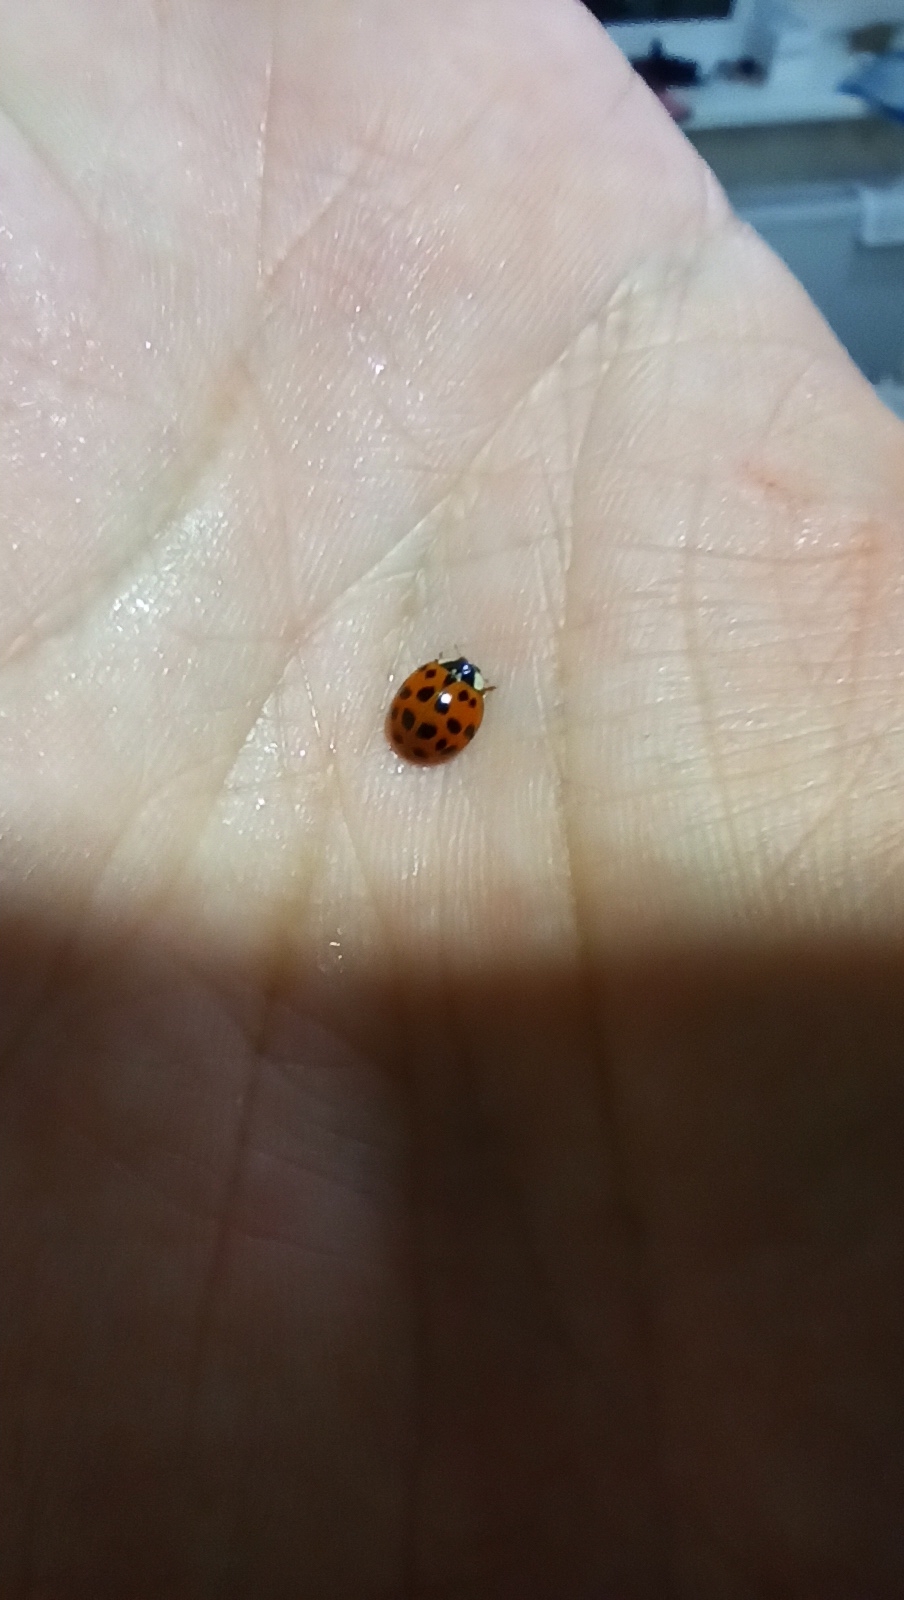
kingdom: Animalia
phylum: Arthropoda
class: Insecta
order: Coleoptera
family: Coccinellidae
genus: Harmonia
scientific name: Harmonia axyridis
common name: Harlequin ladybird
